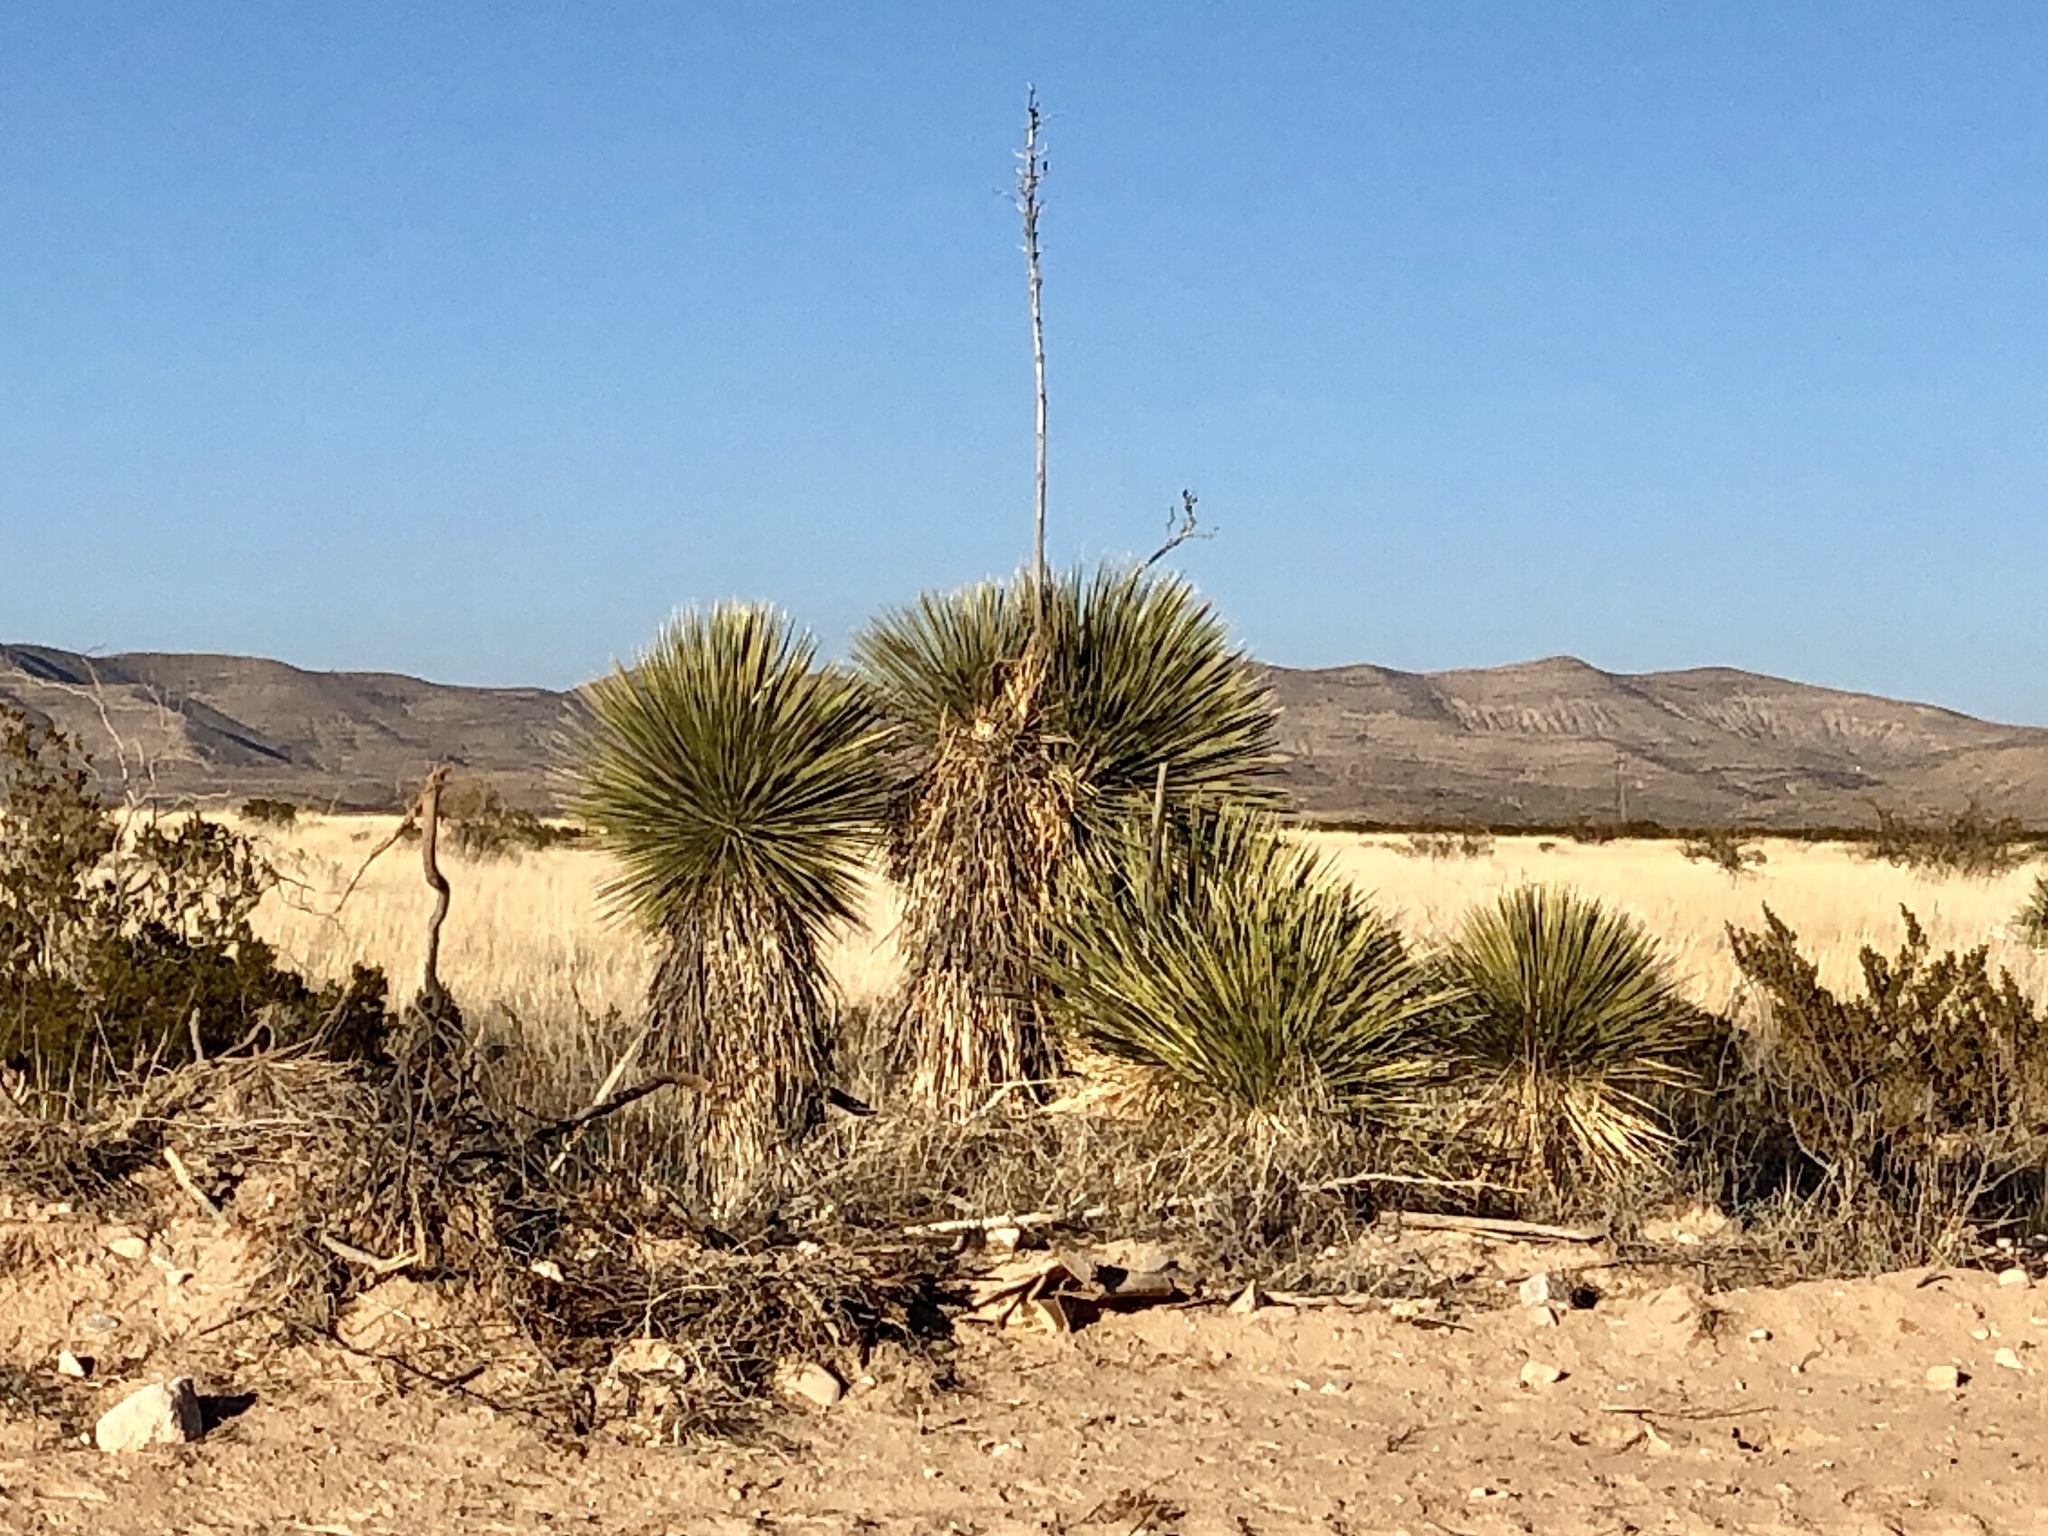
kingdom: Plantae
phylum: Tracheophyta
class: Liliopsida
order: Asparagales
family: Asparagaceae
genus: Yucca
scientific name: Yucca elata
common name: Palmella
